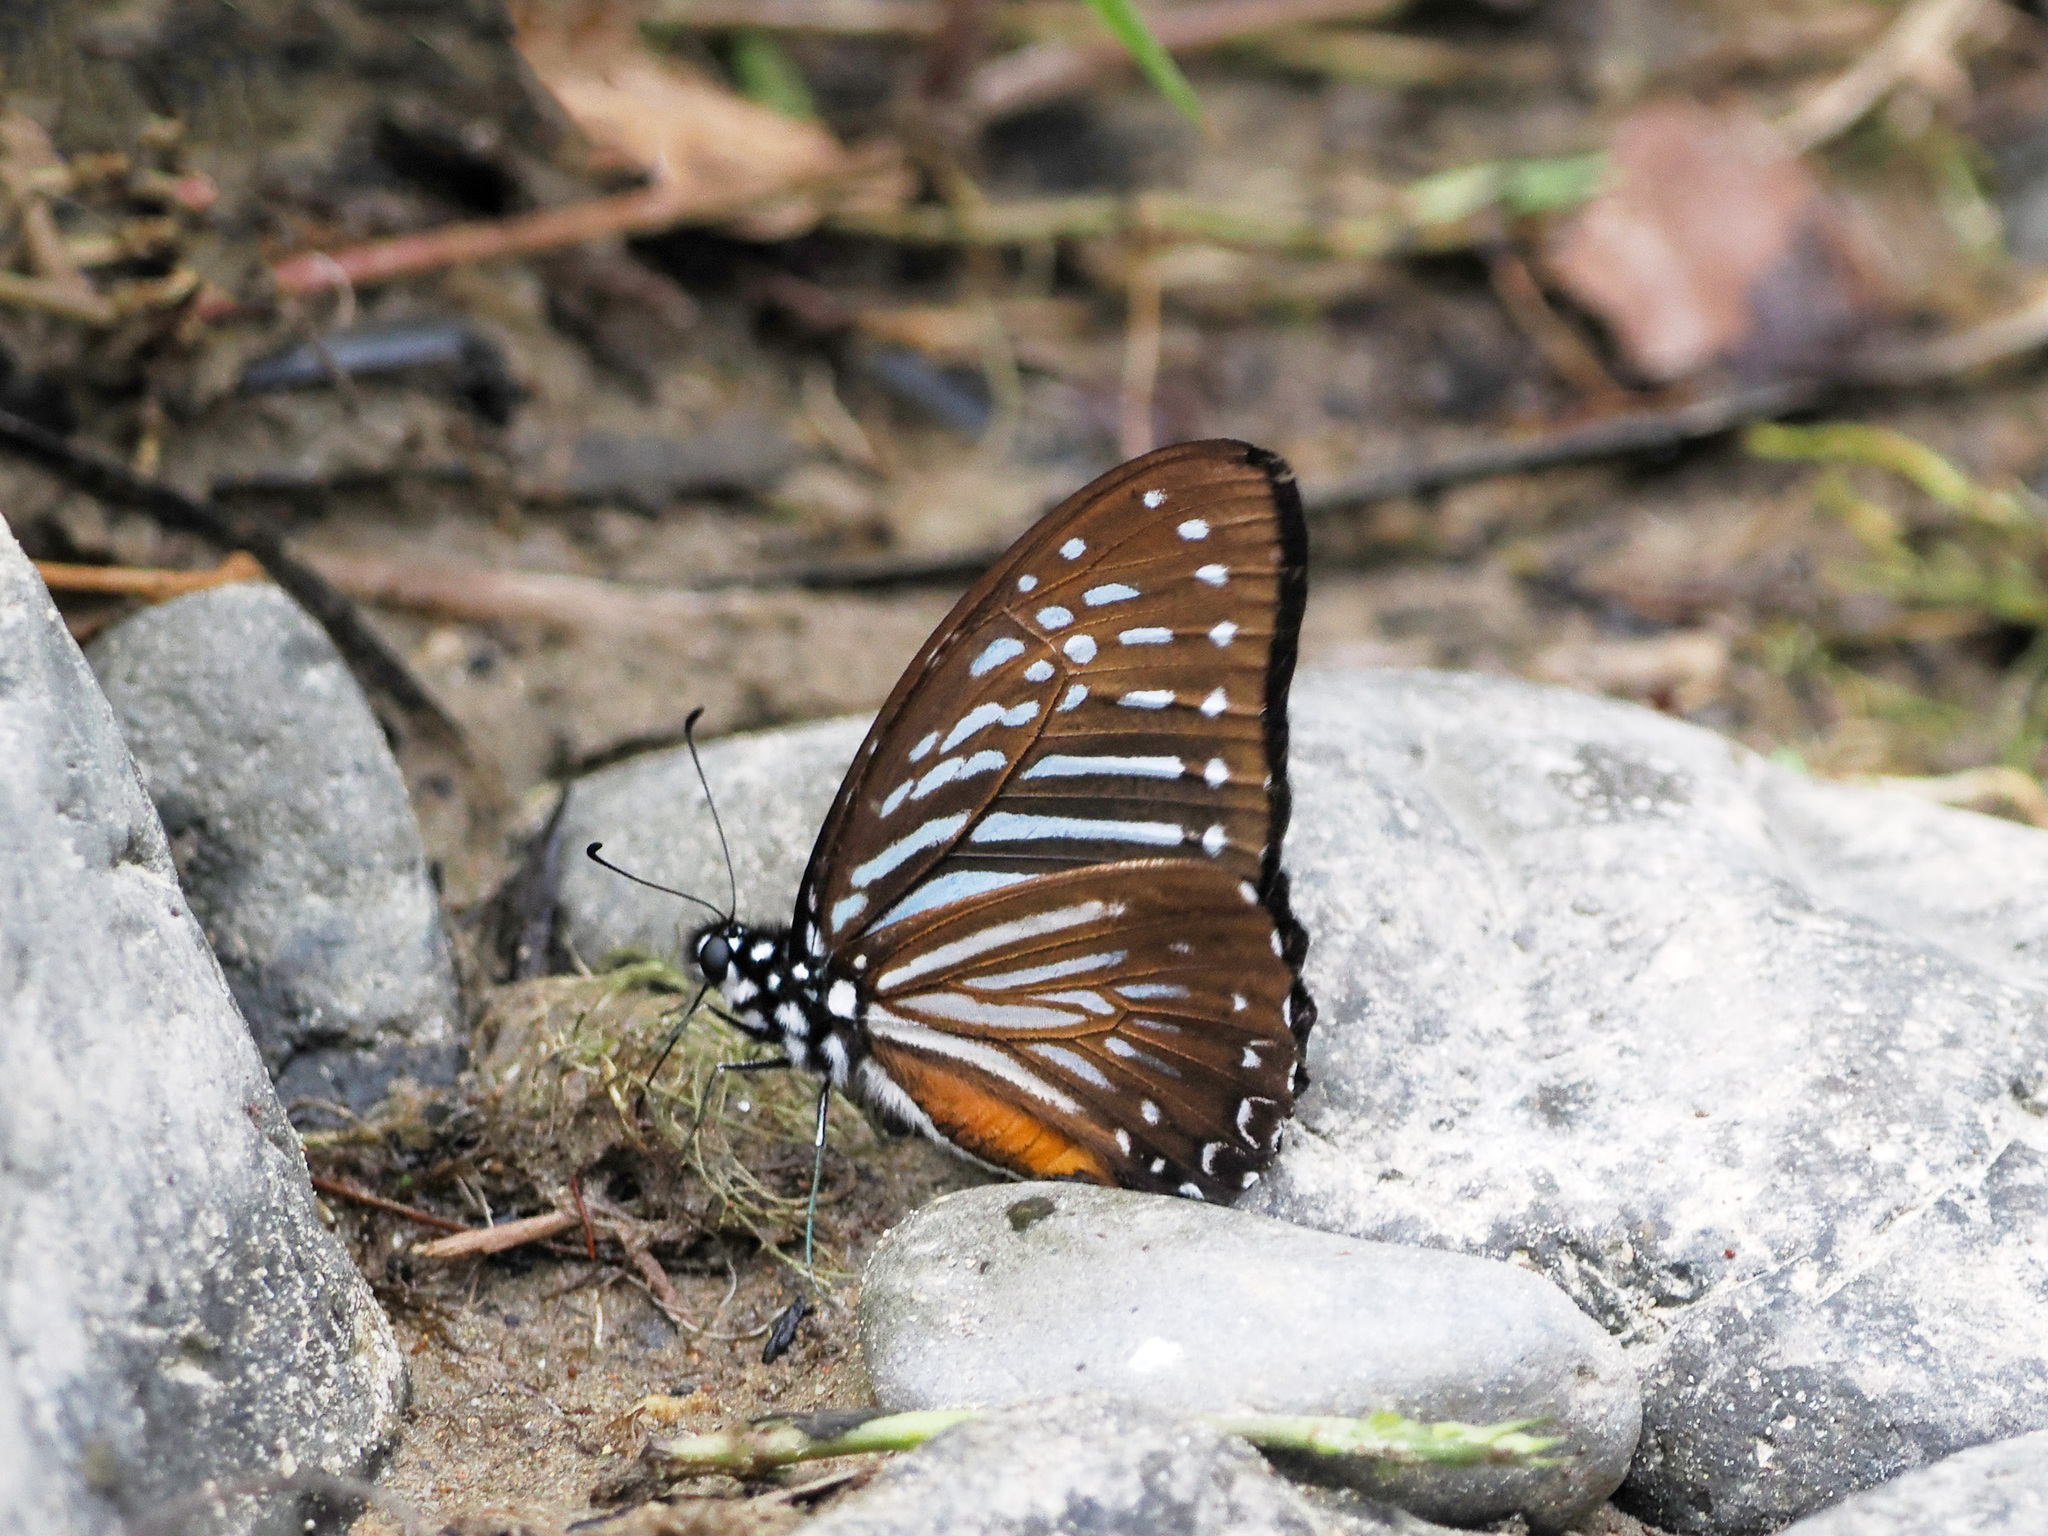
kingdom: Animalia
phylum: Arthropoda
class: Insecta
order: Lepidoptera
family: Papilionidae
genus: Graphium
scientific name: Graphium macareus
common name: Lesser zebra
